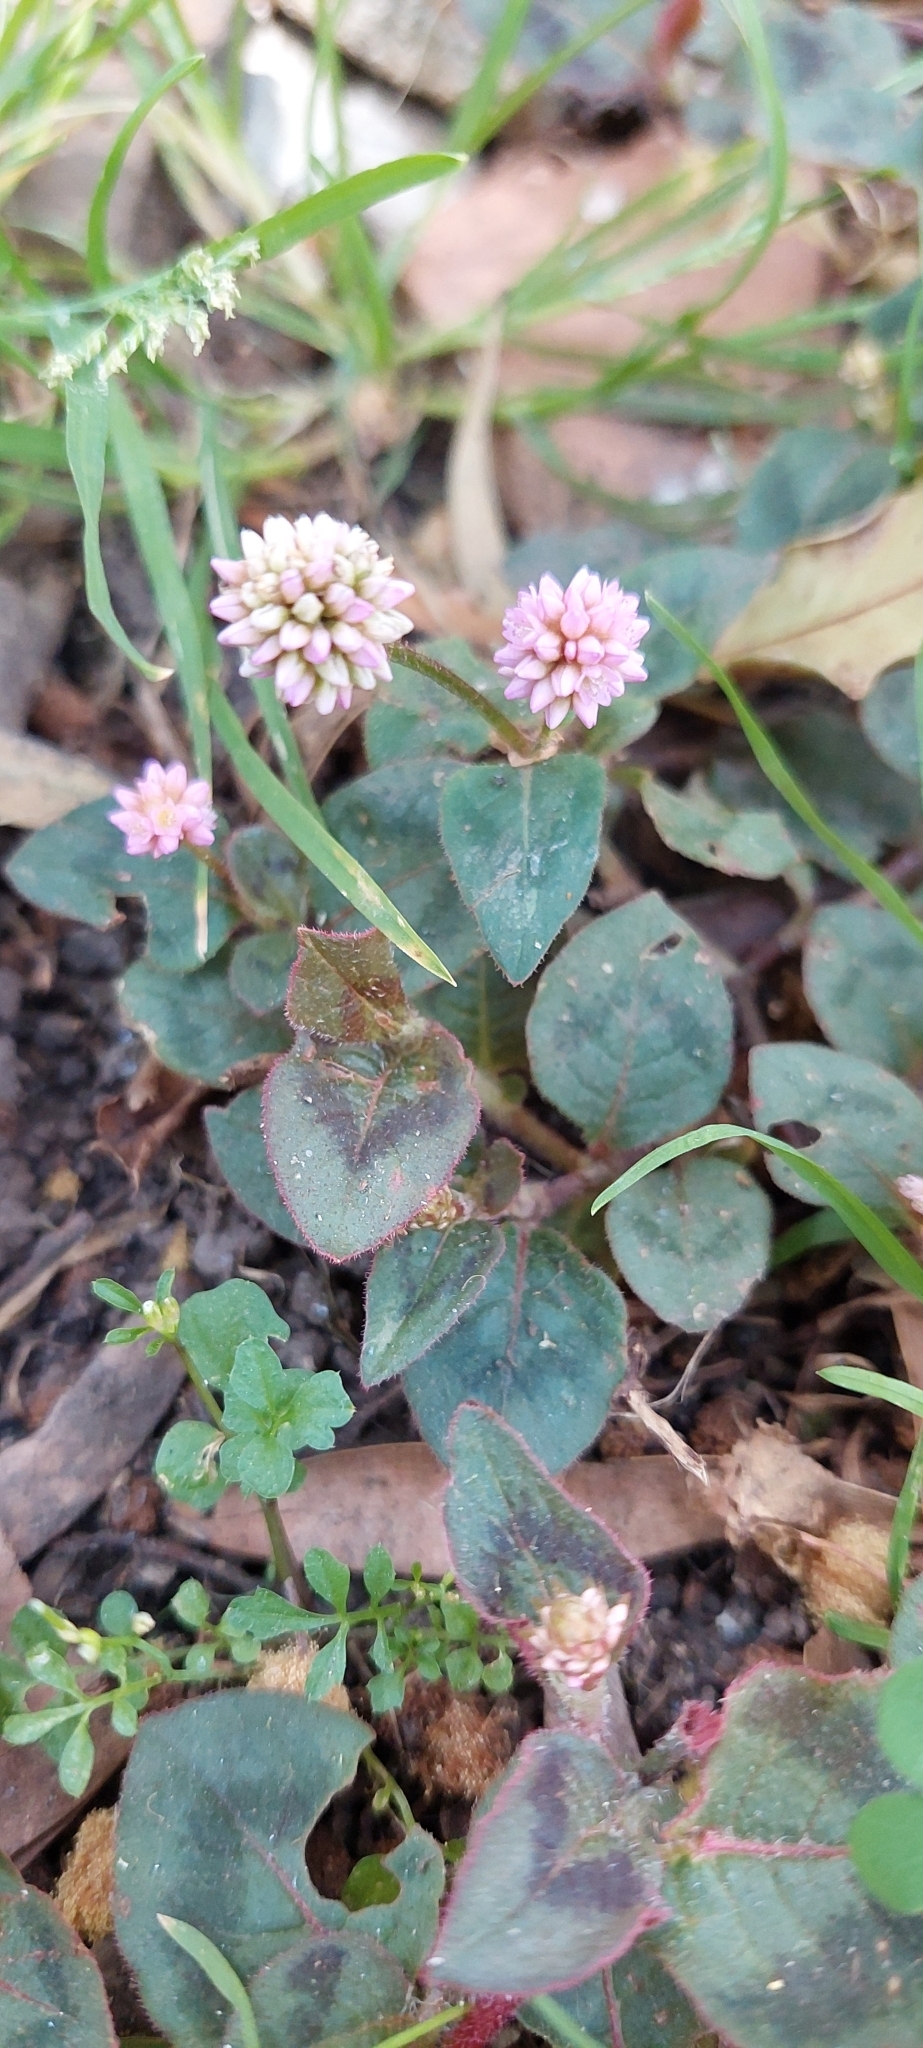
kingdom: Plantae
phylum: Tracheophyta
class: Magnoliopsida
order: Caryophyllales
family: Polygonaceae
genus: Persicaria
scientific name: Persicaria capitata
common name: Pinkhead smartweed
